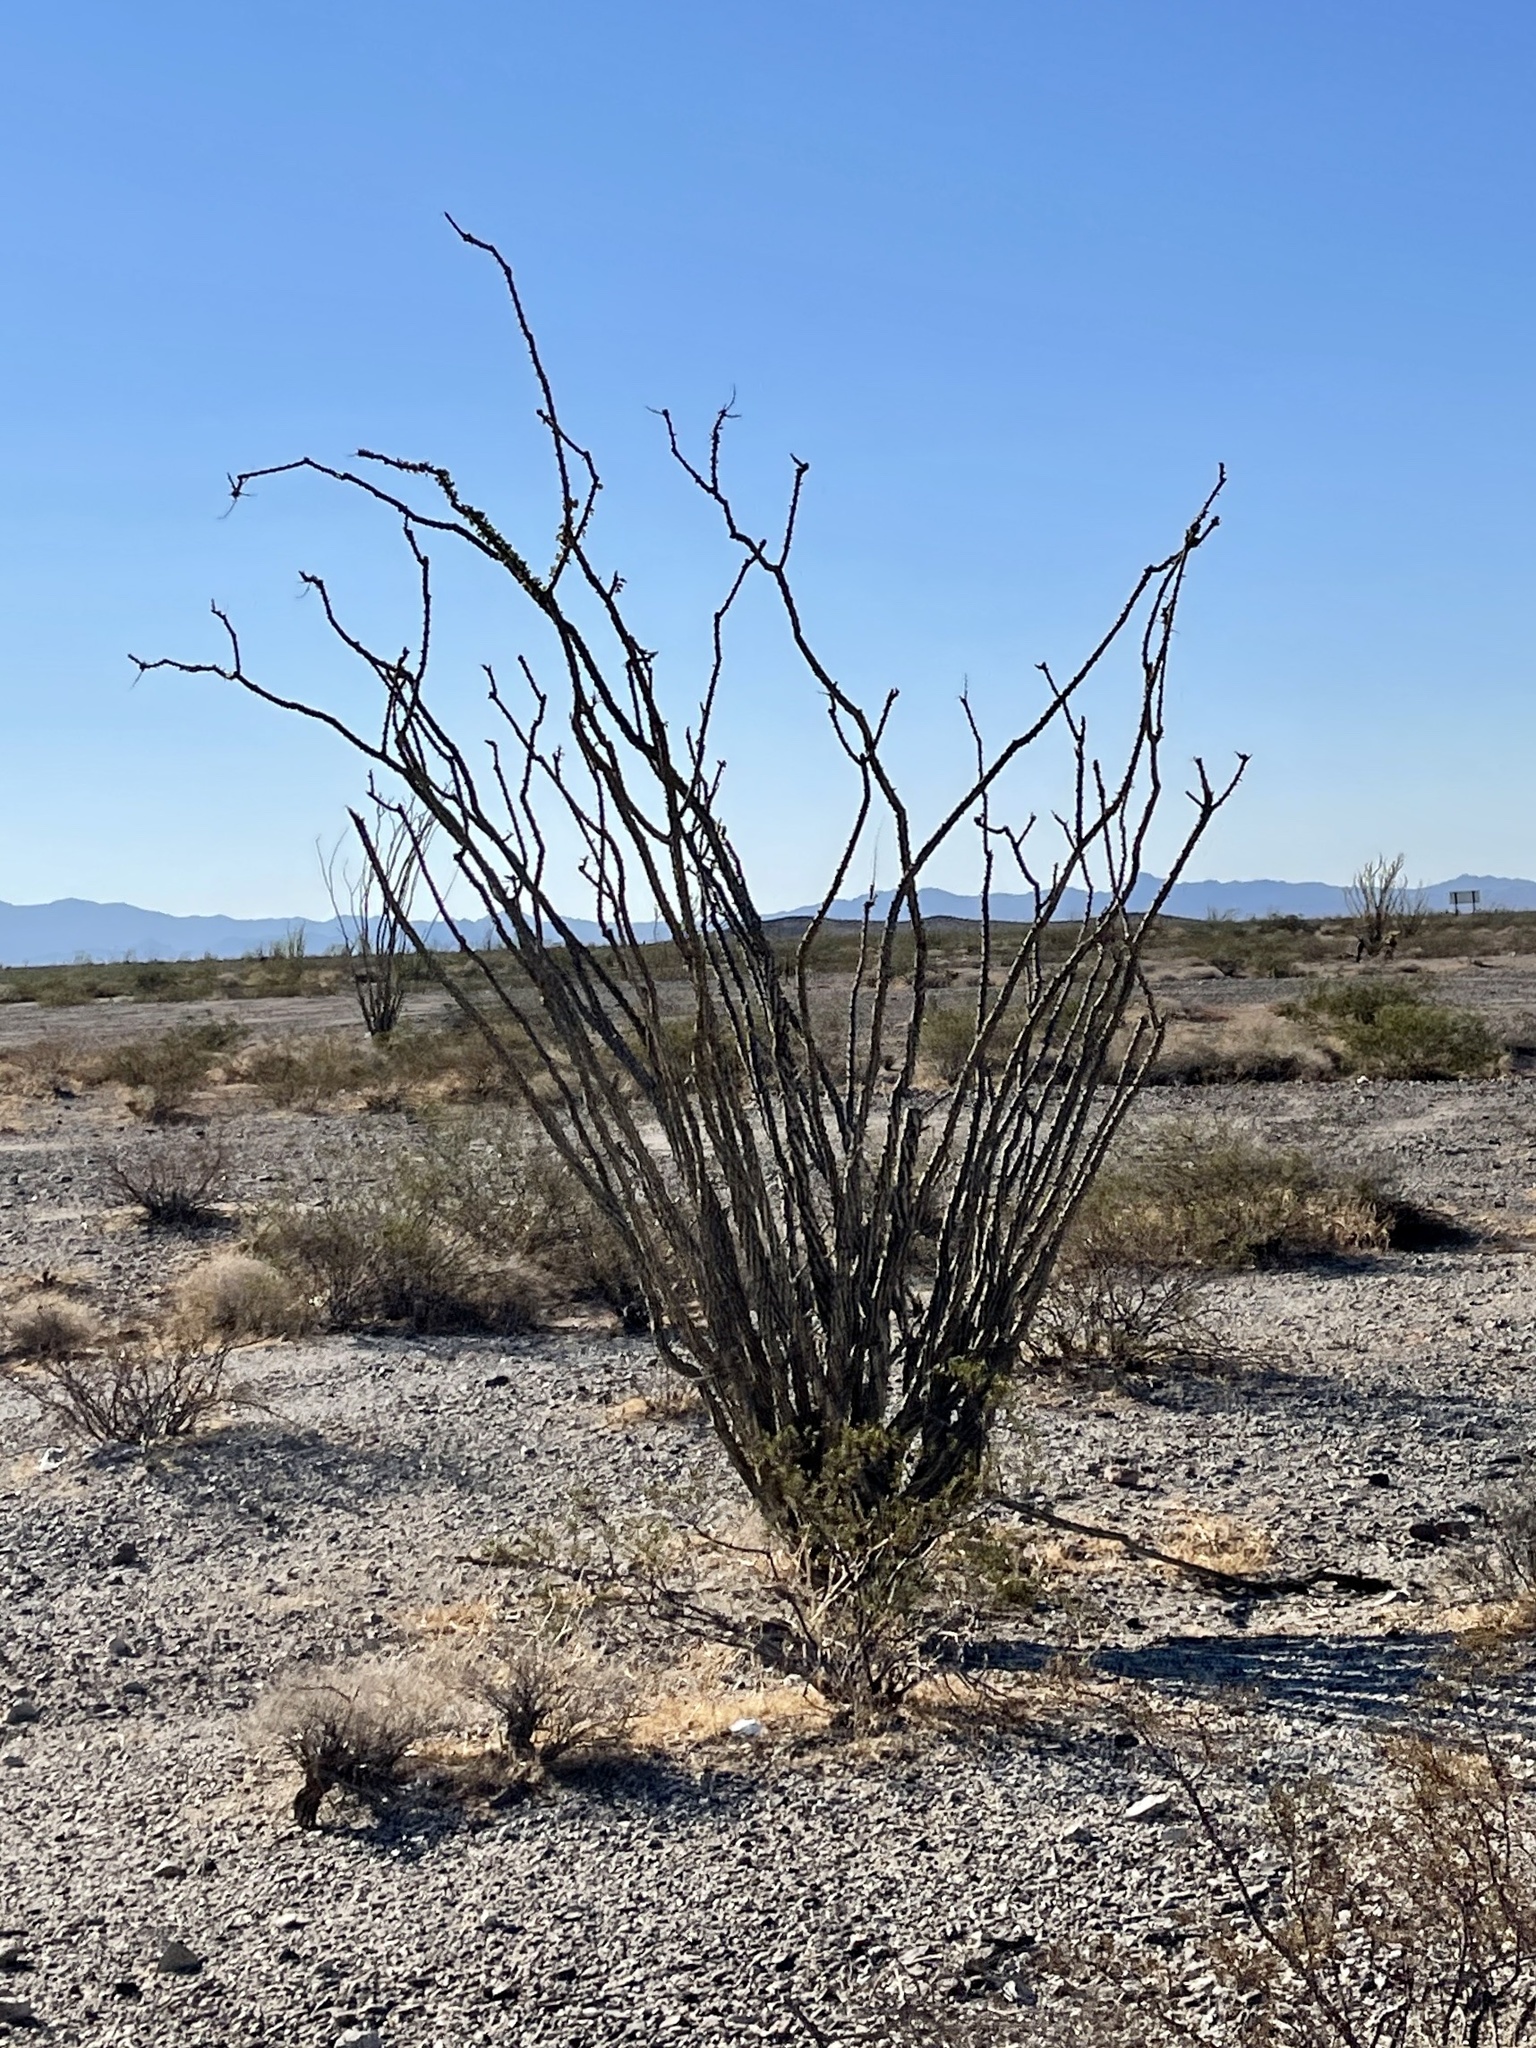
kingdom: Plantae
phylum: Tracheophyta
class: Magnoliopsida
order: Ericales
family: Fouquieriaceae
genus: Fouquieria
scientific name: Fouquieria splendens
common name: Vine-cactus
